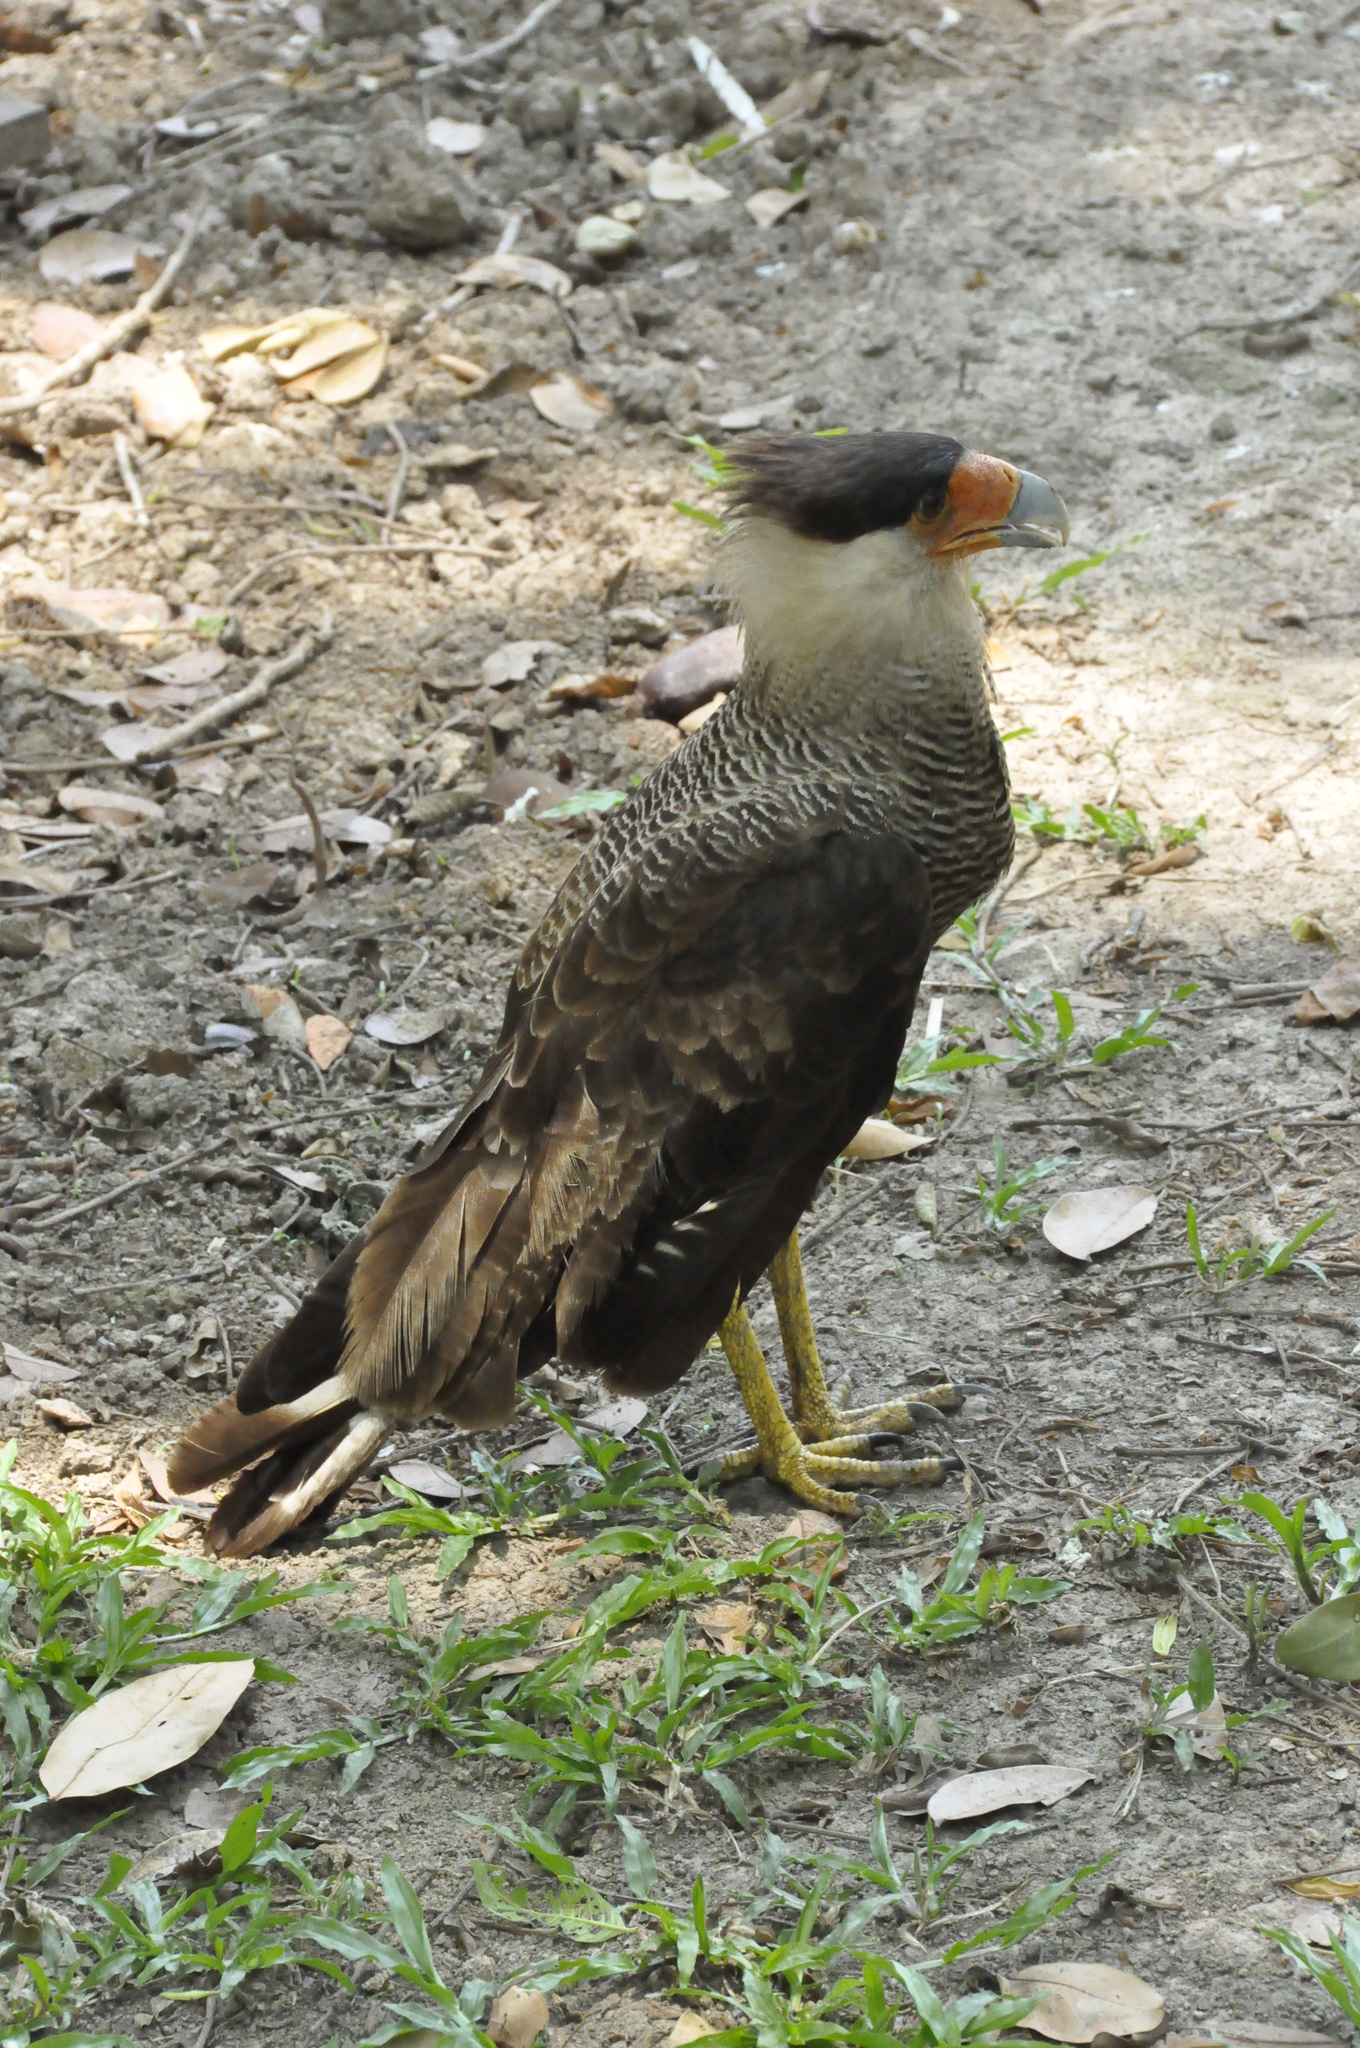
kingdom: Animalia
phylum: Chordata
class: Aves
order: Falconiformes
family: Falconidae
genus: Caracara
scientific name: Caracara plancus
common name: Southern caracara
